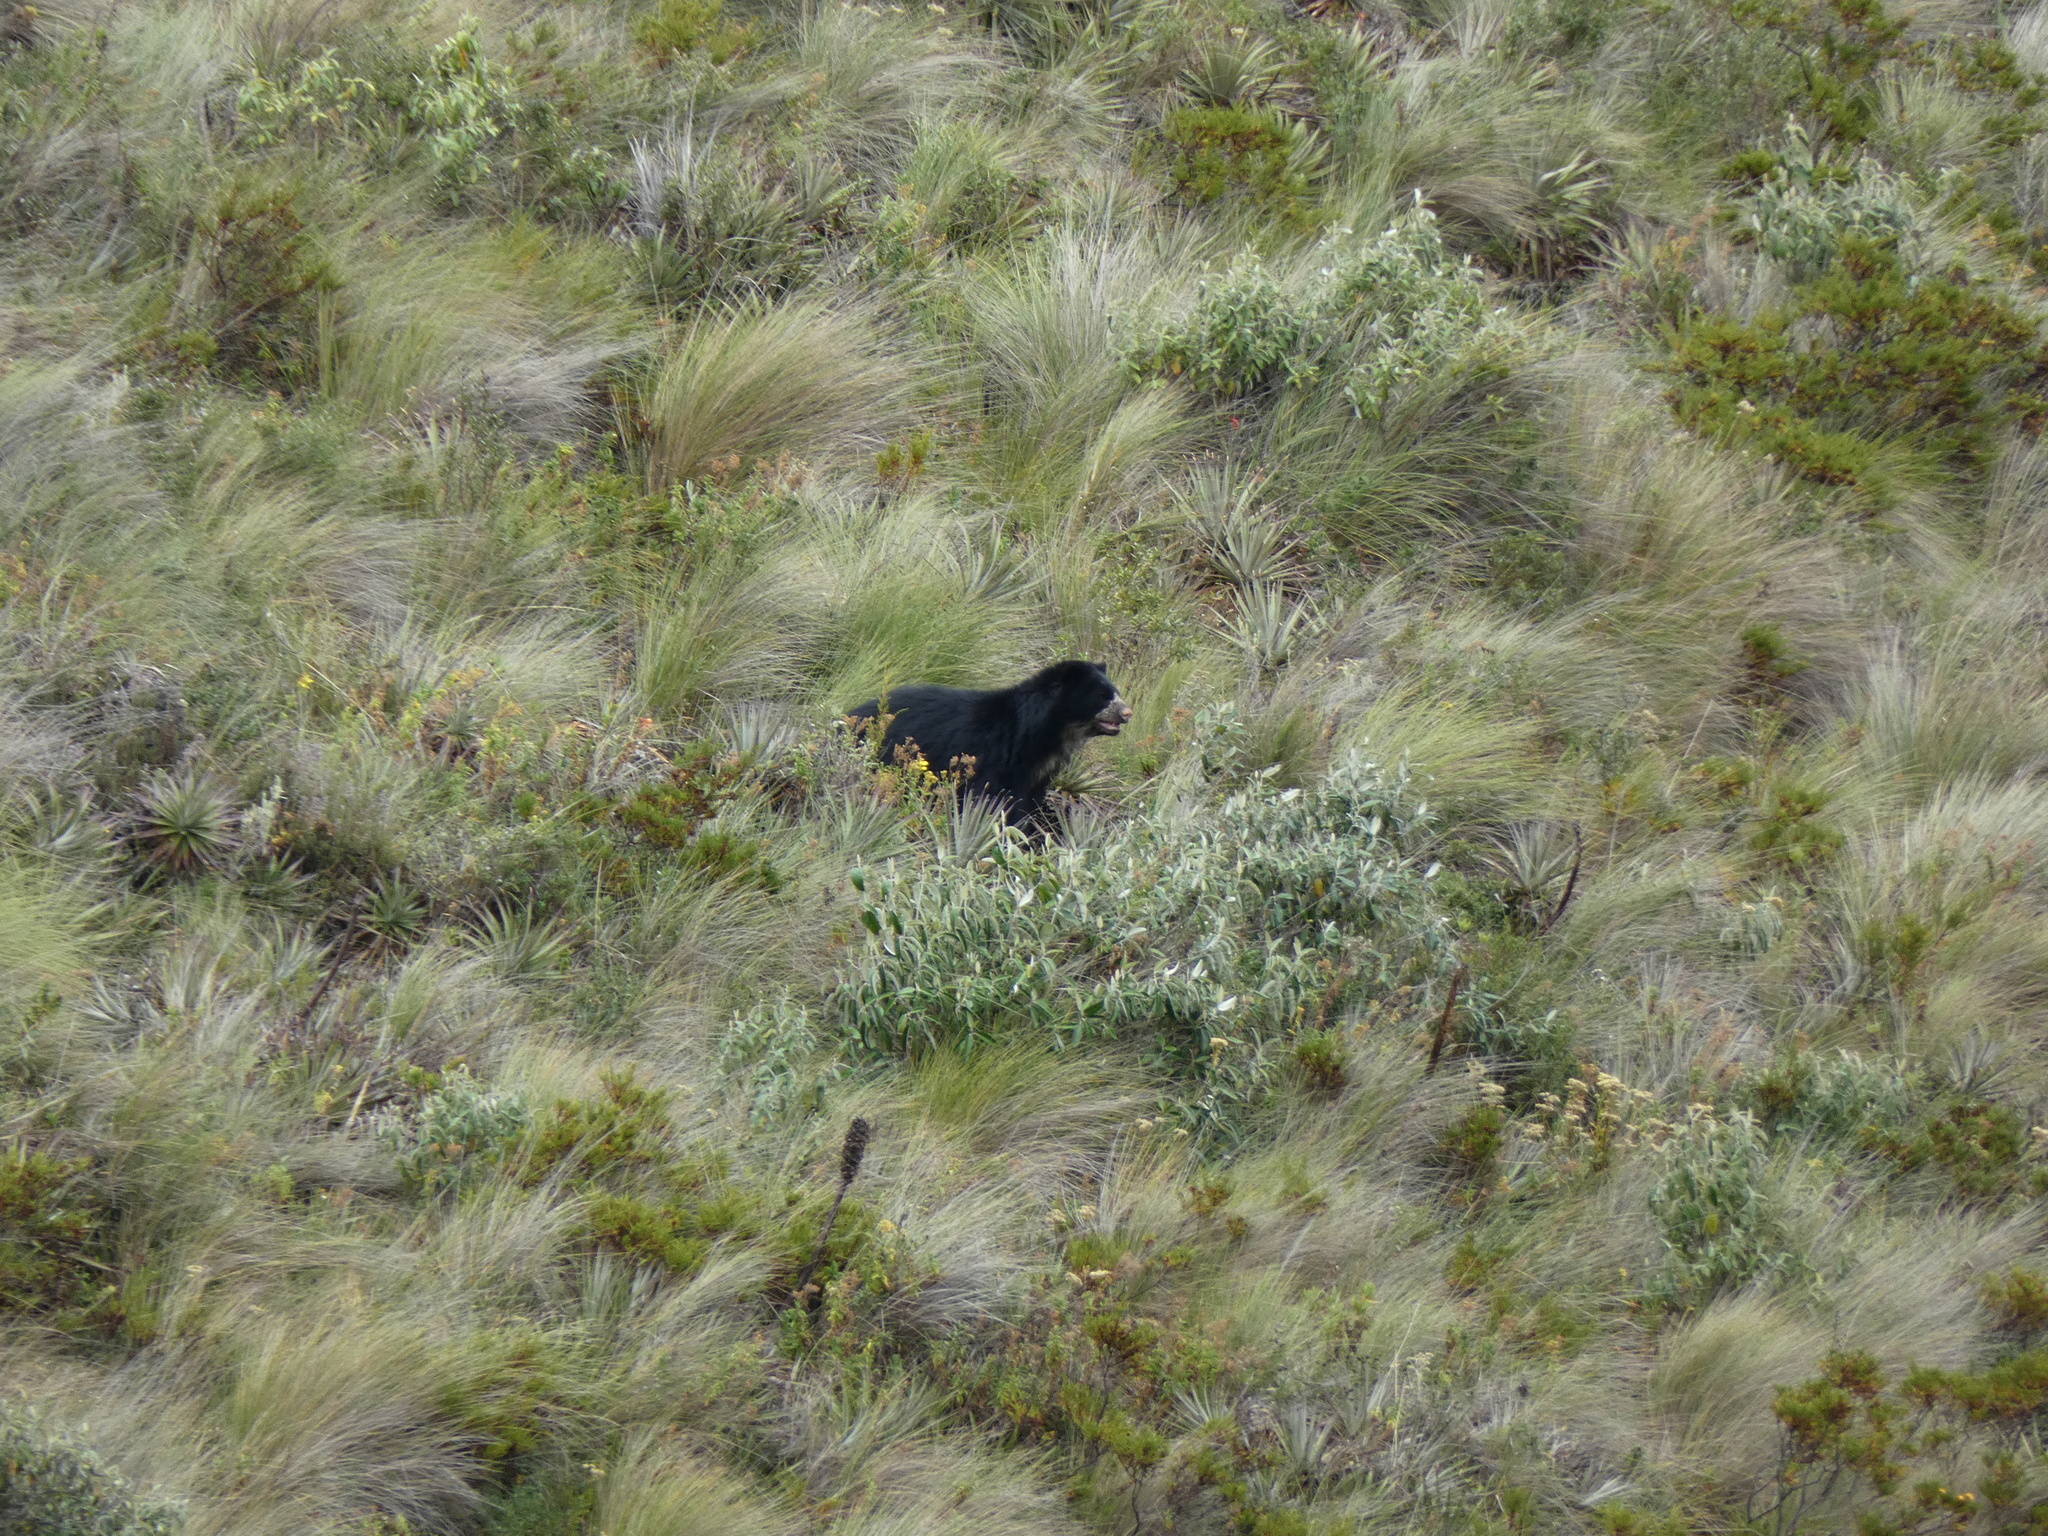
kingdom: Animalia
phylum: Chordata
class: Mammalia
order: Carnivora
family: Ursidae
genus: Tremarctos
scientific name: Tremarctos ornatus
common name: Spectacled bear
